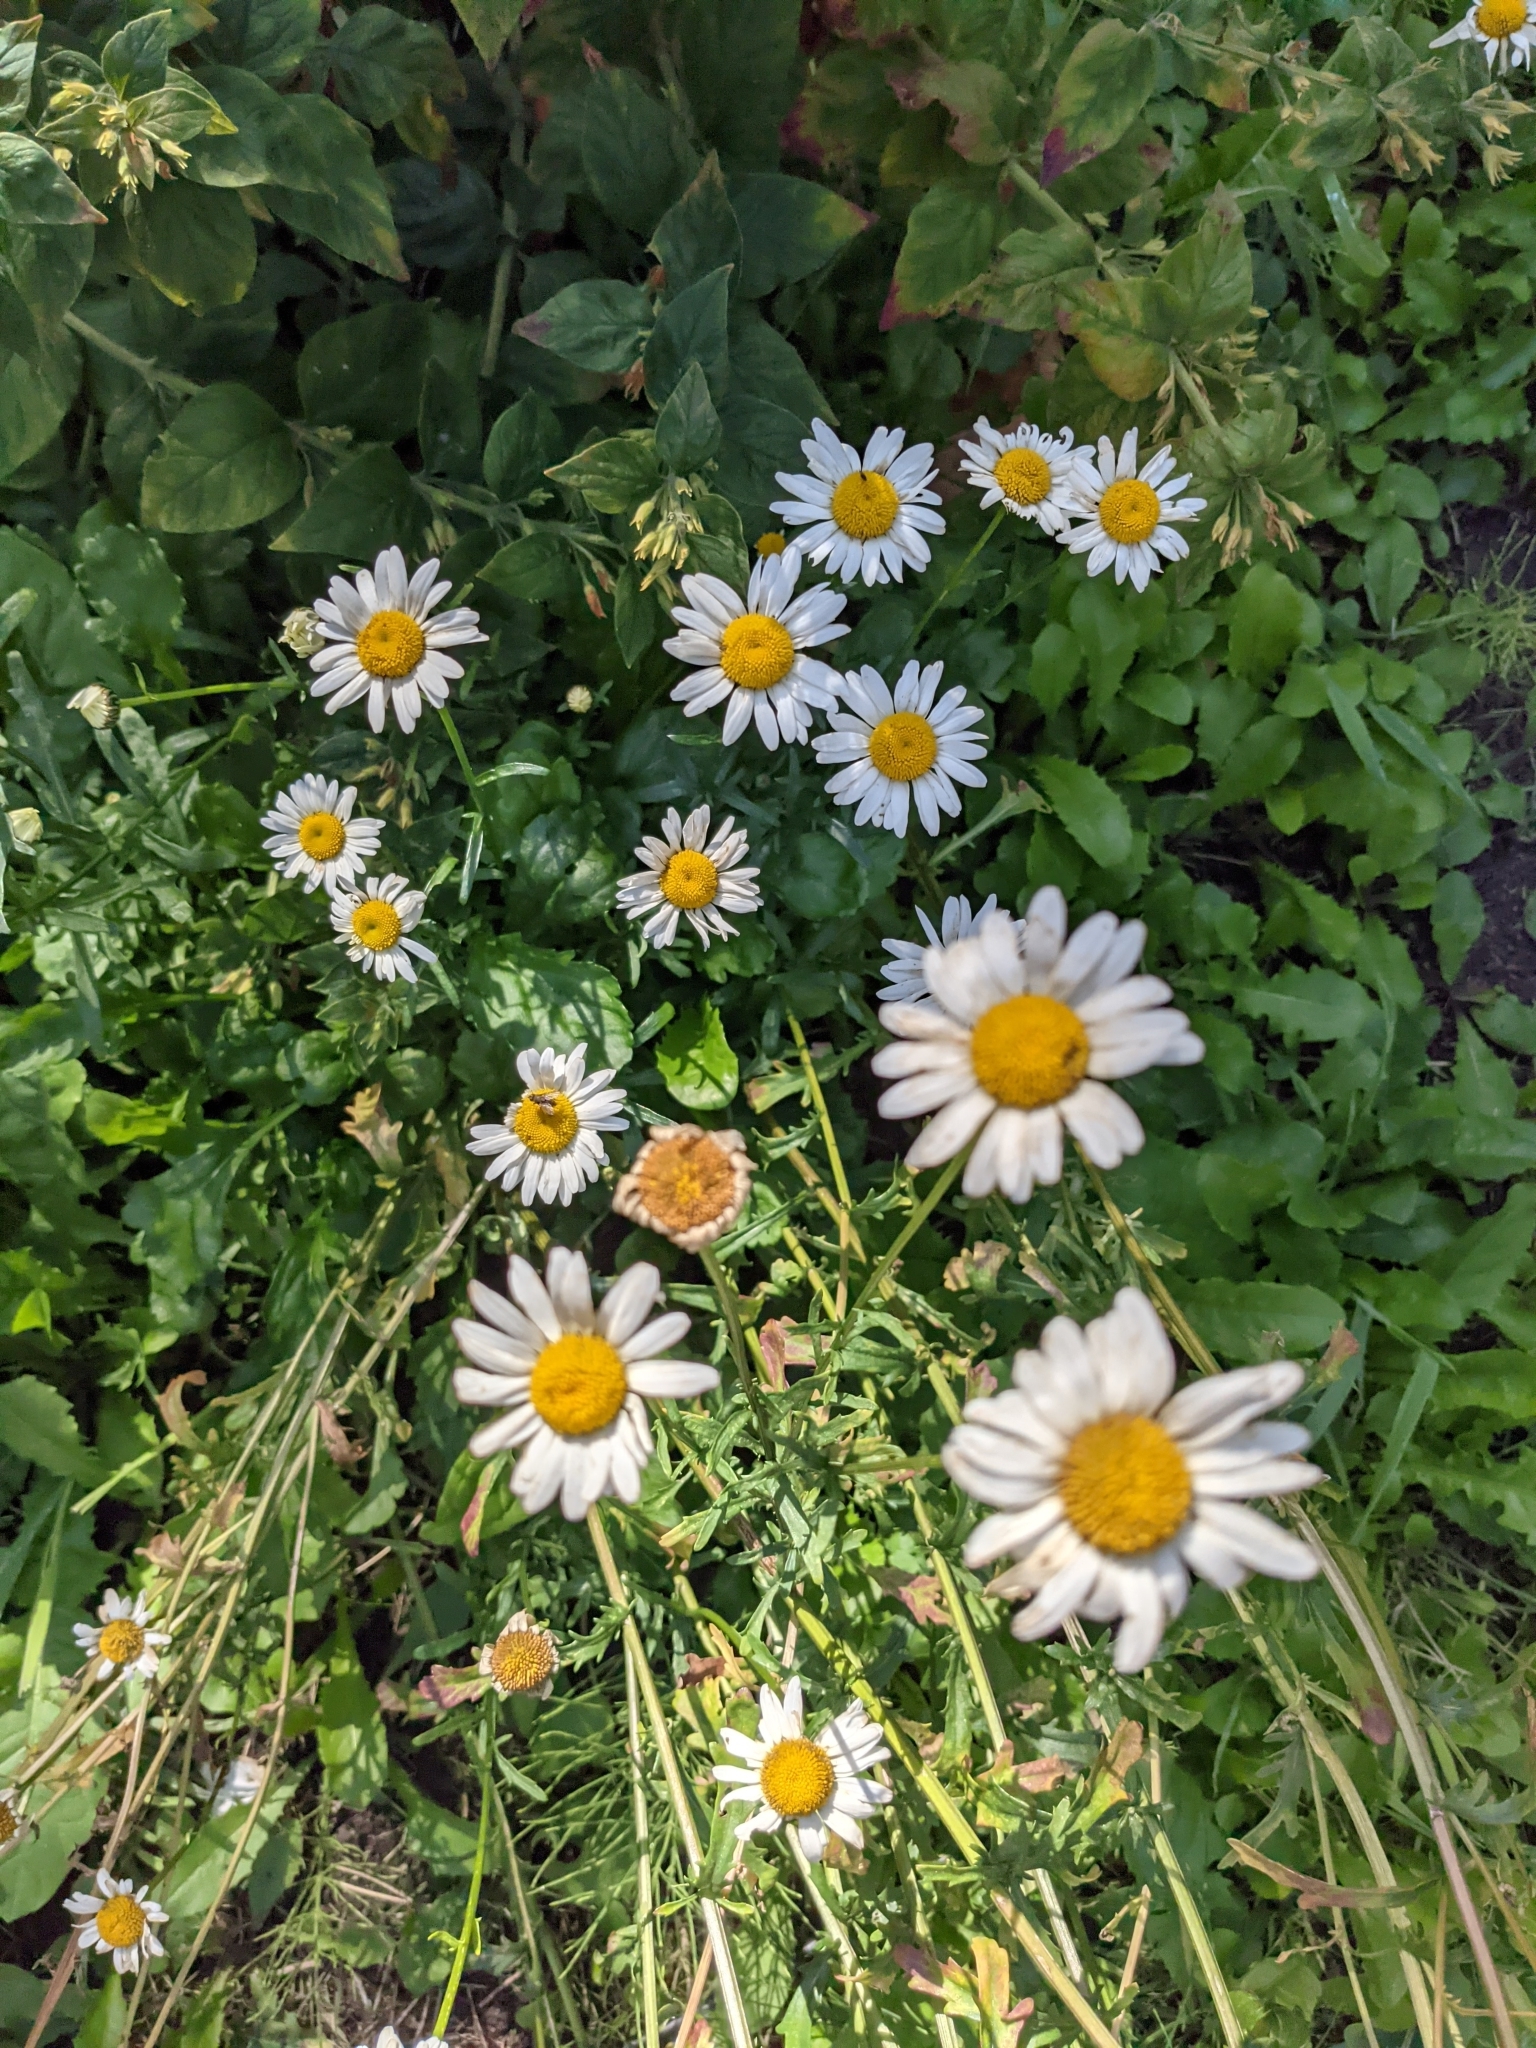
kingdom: Plantae
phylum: Tracheophyta
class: Magnoliopsida
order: Asterales
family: Asteraceae
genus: Leucanthemum
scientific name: Leucanthemum vulgare
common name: Oxeye daisy
